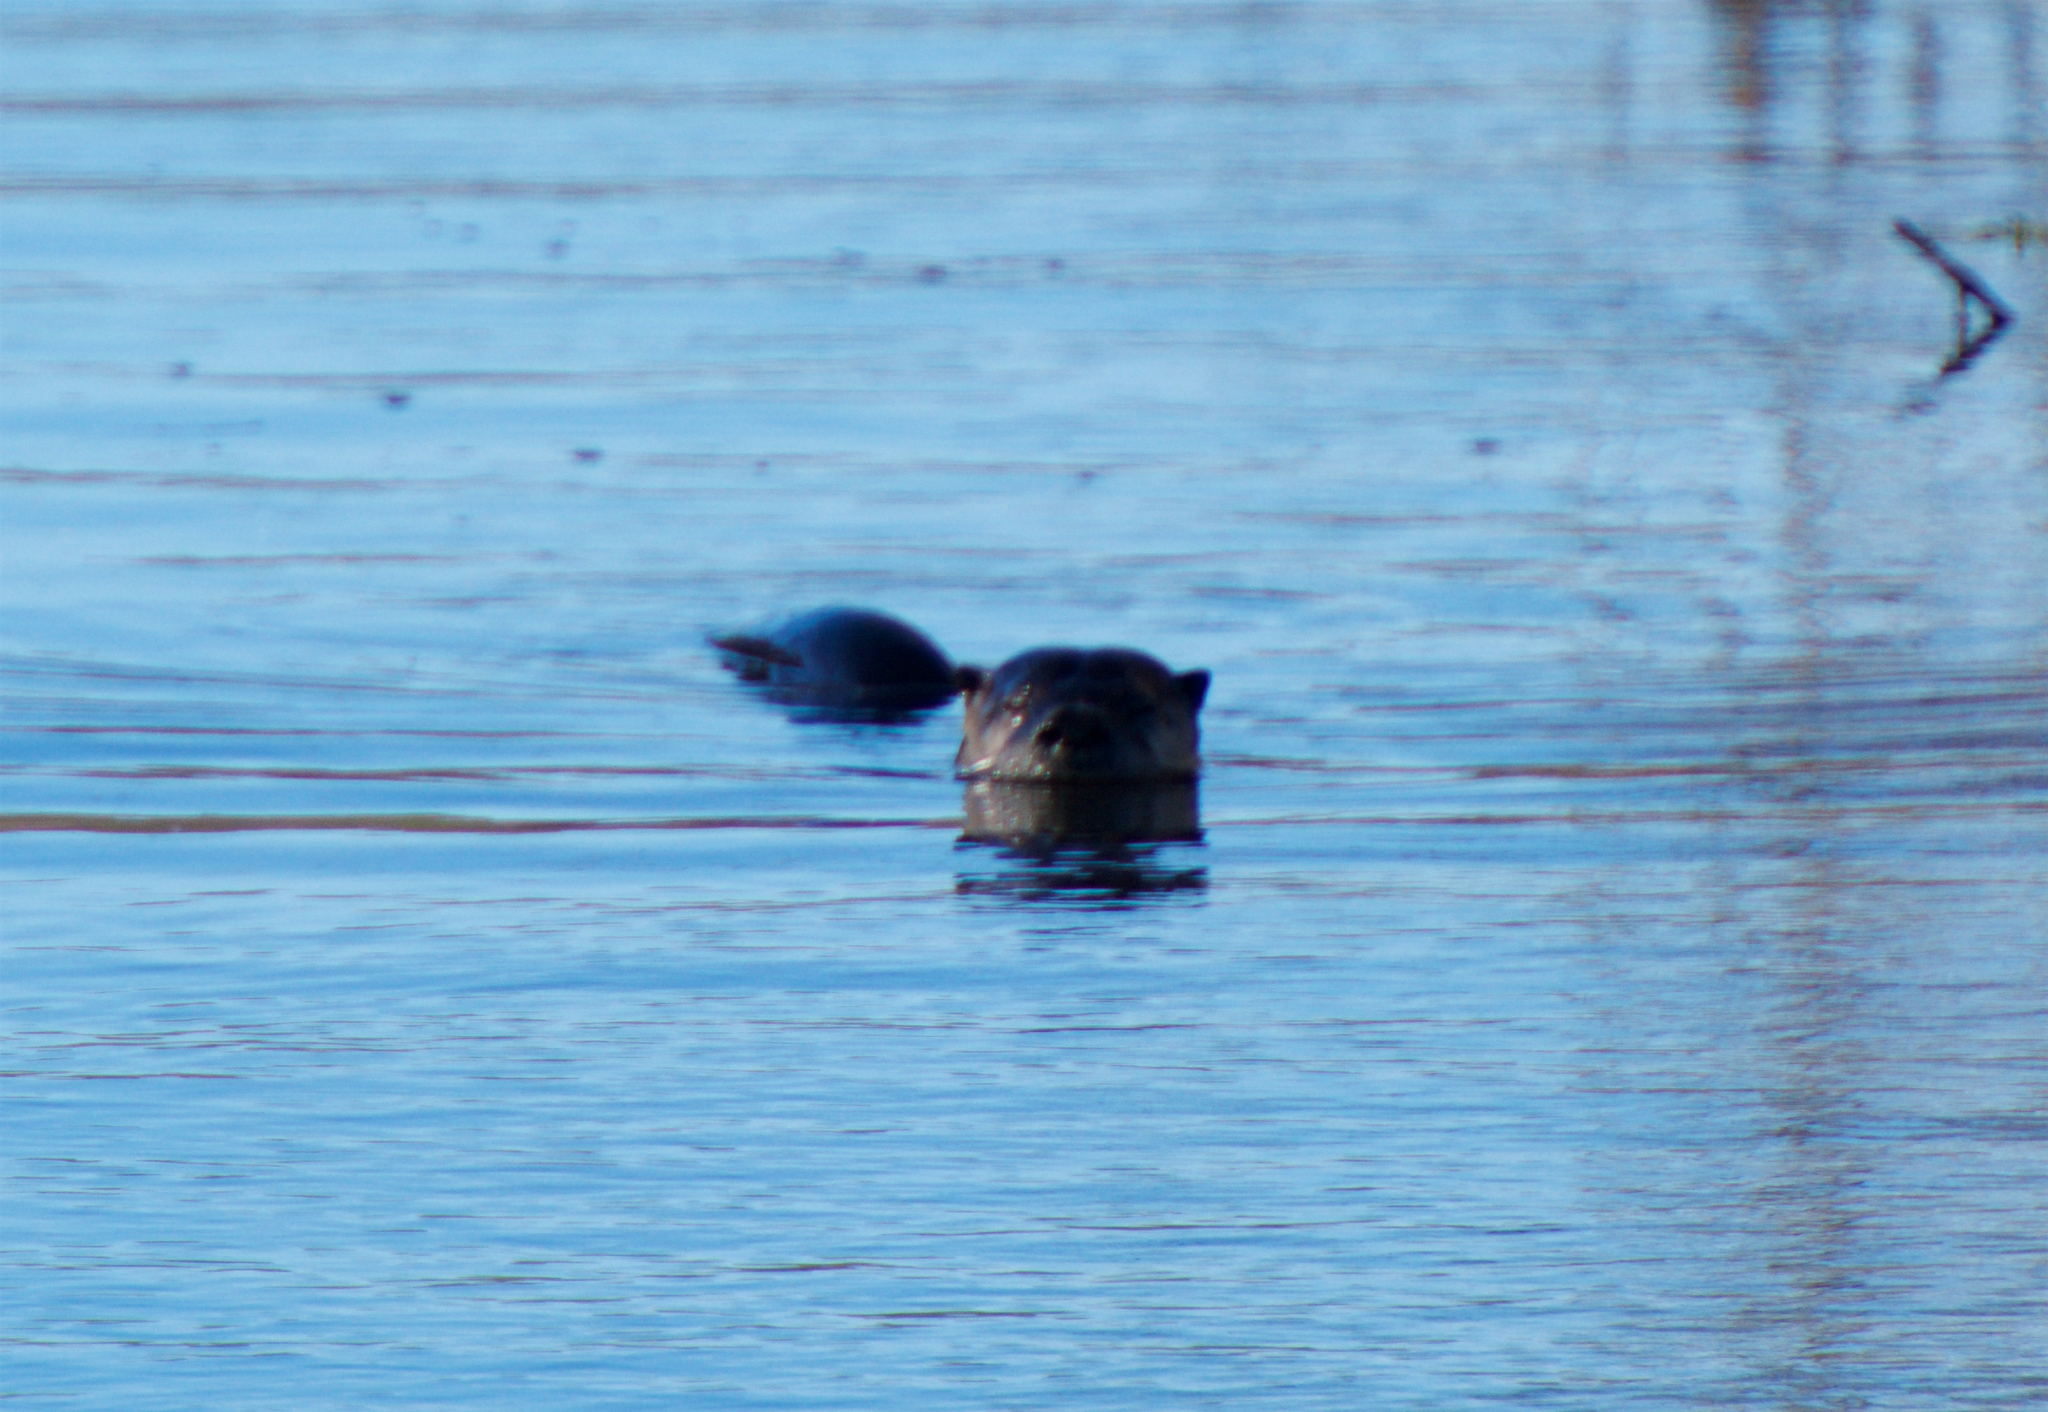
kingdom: Animalia
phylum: Chordata
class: Mammalia
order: Carnivora
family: Mustelidae
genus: Lontra
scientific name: Lontra canadensis
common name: North american river otter
